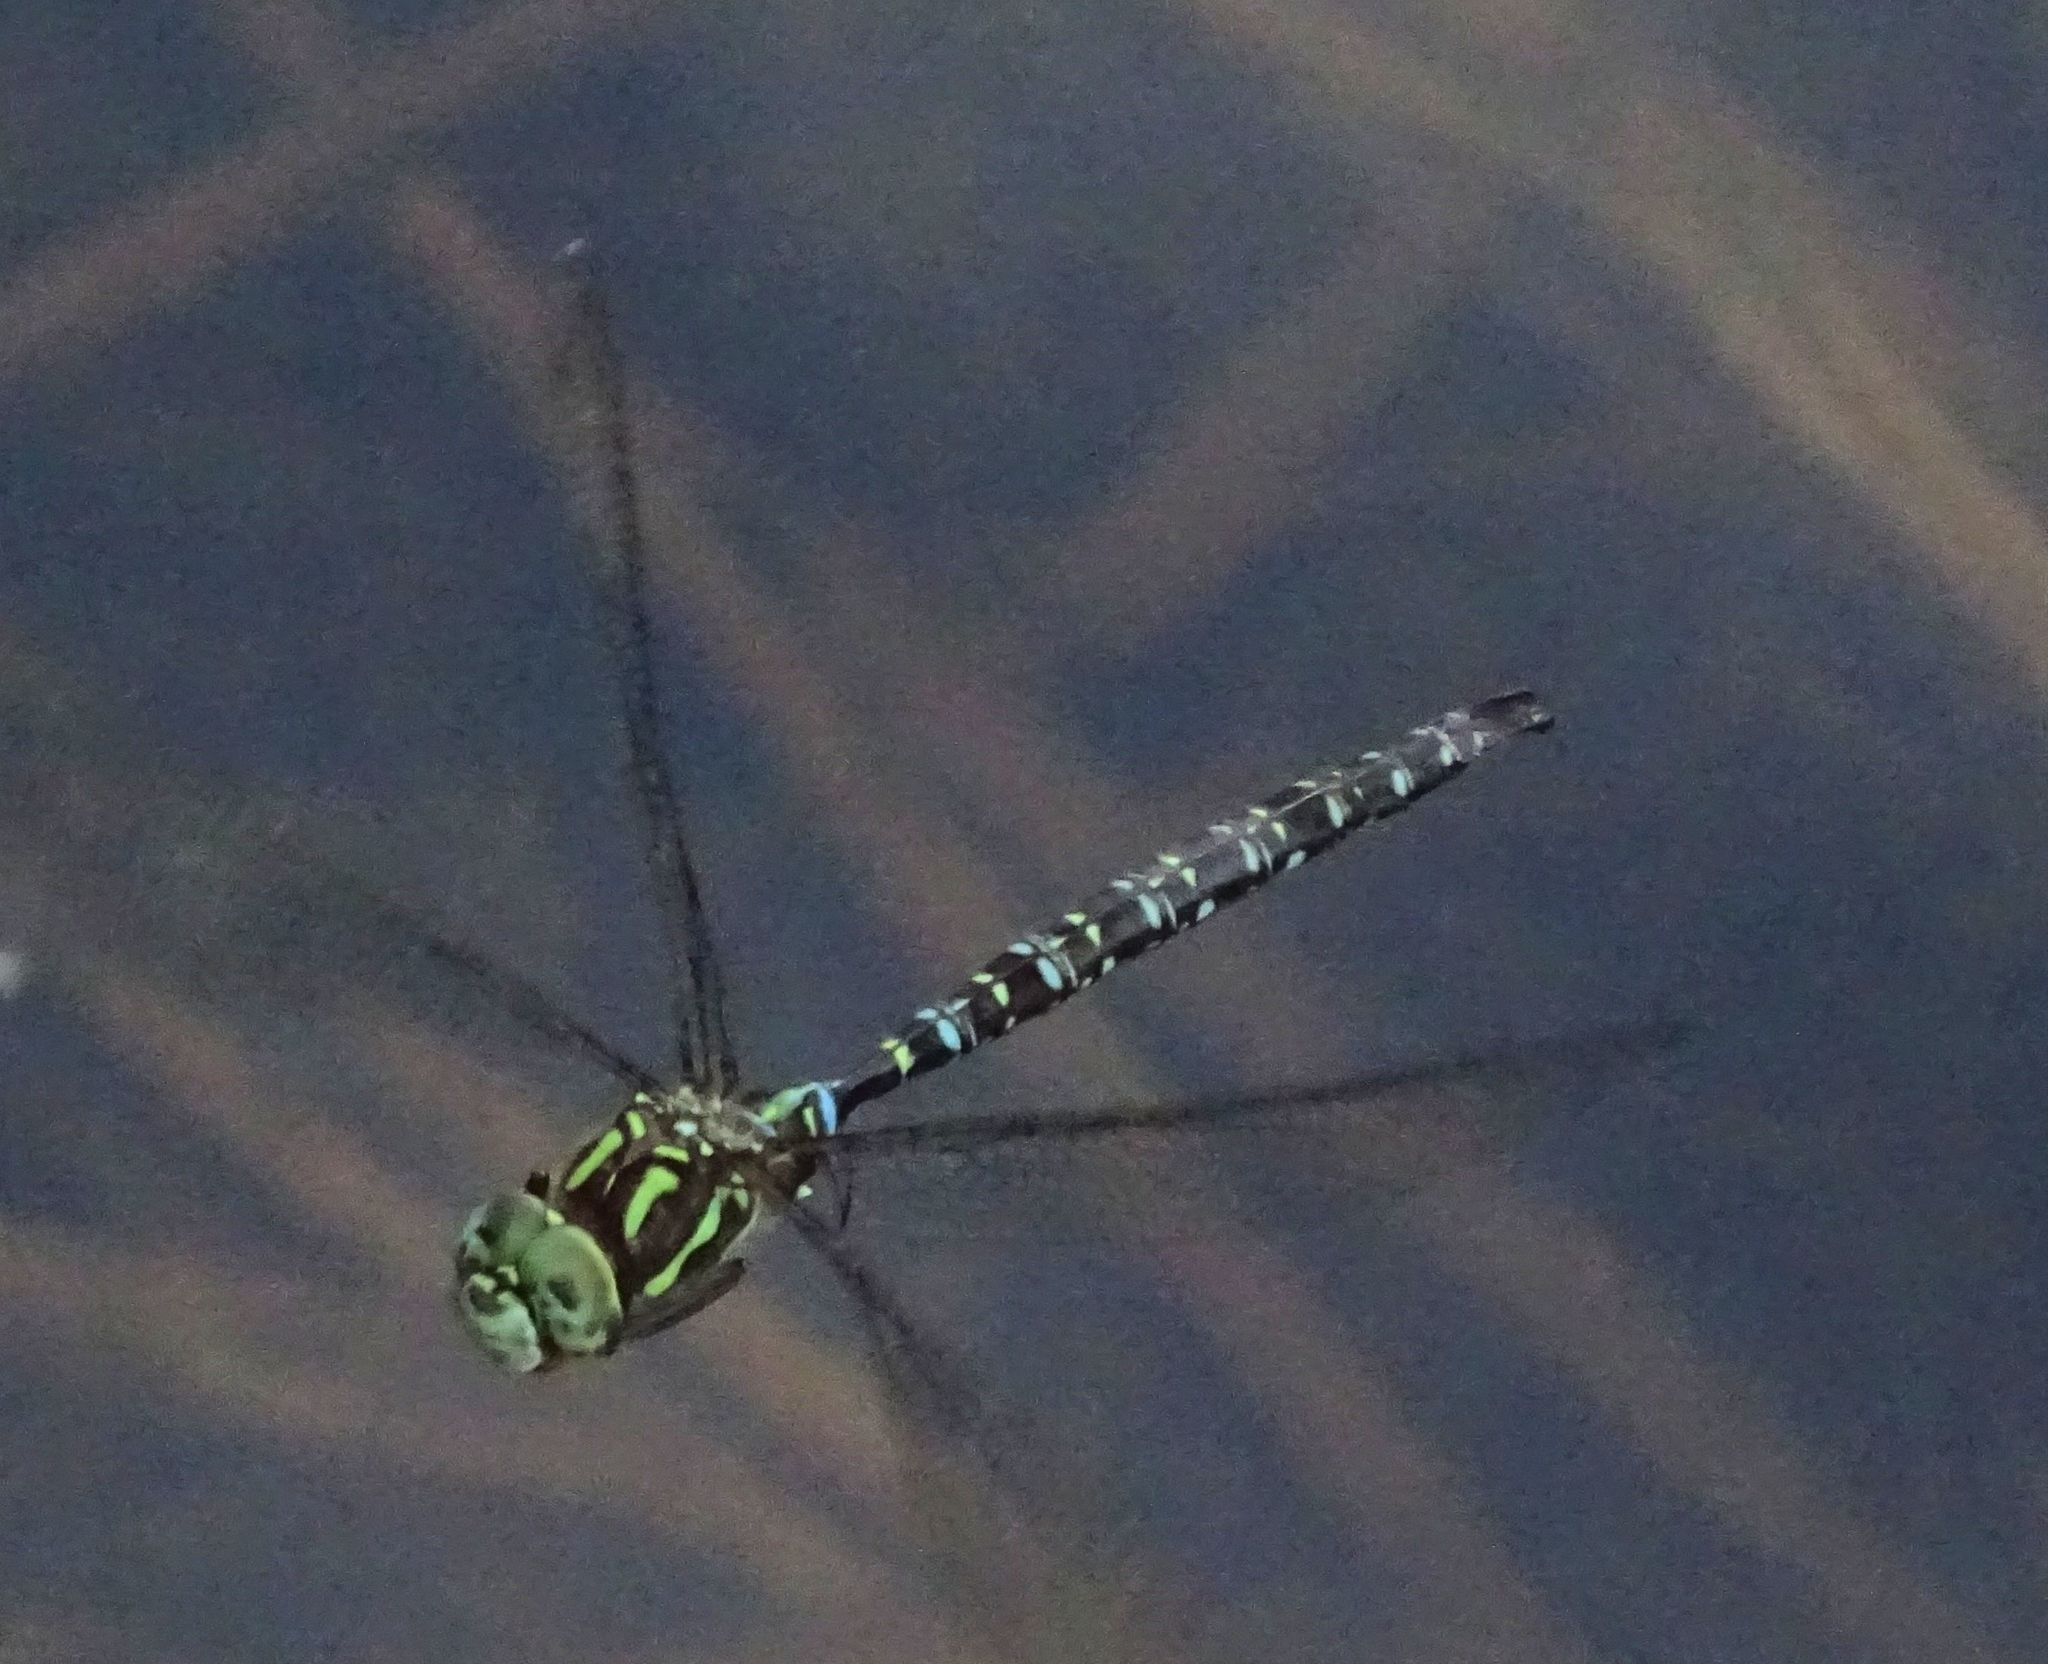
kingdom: Animalia
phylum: Arthropoda
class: Insecta
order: Odonata
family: Aeshnidae
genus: Aeshna
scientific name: Aeshna umbrosa
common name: Shadow darner
